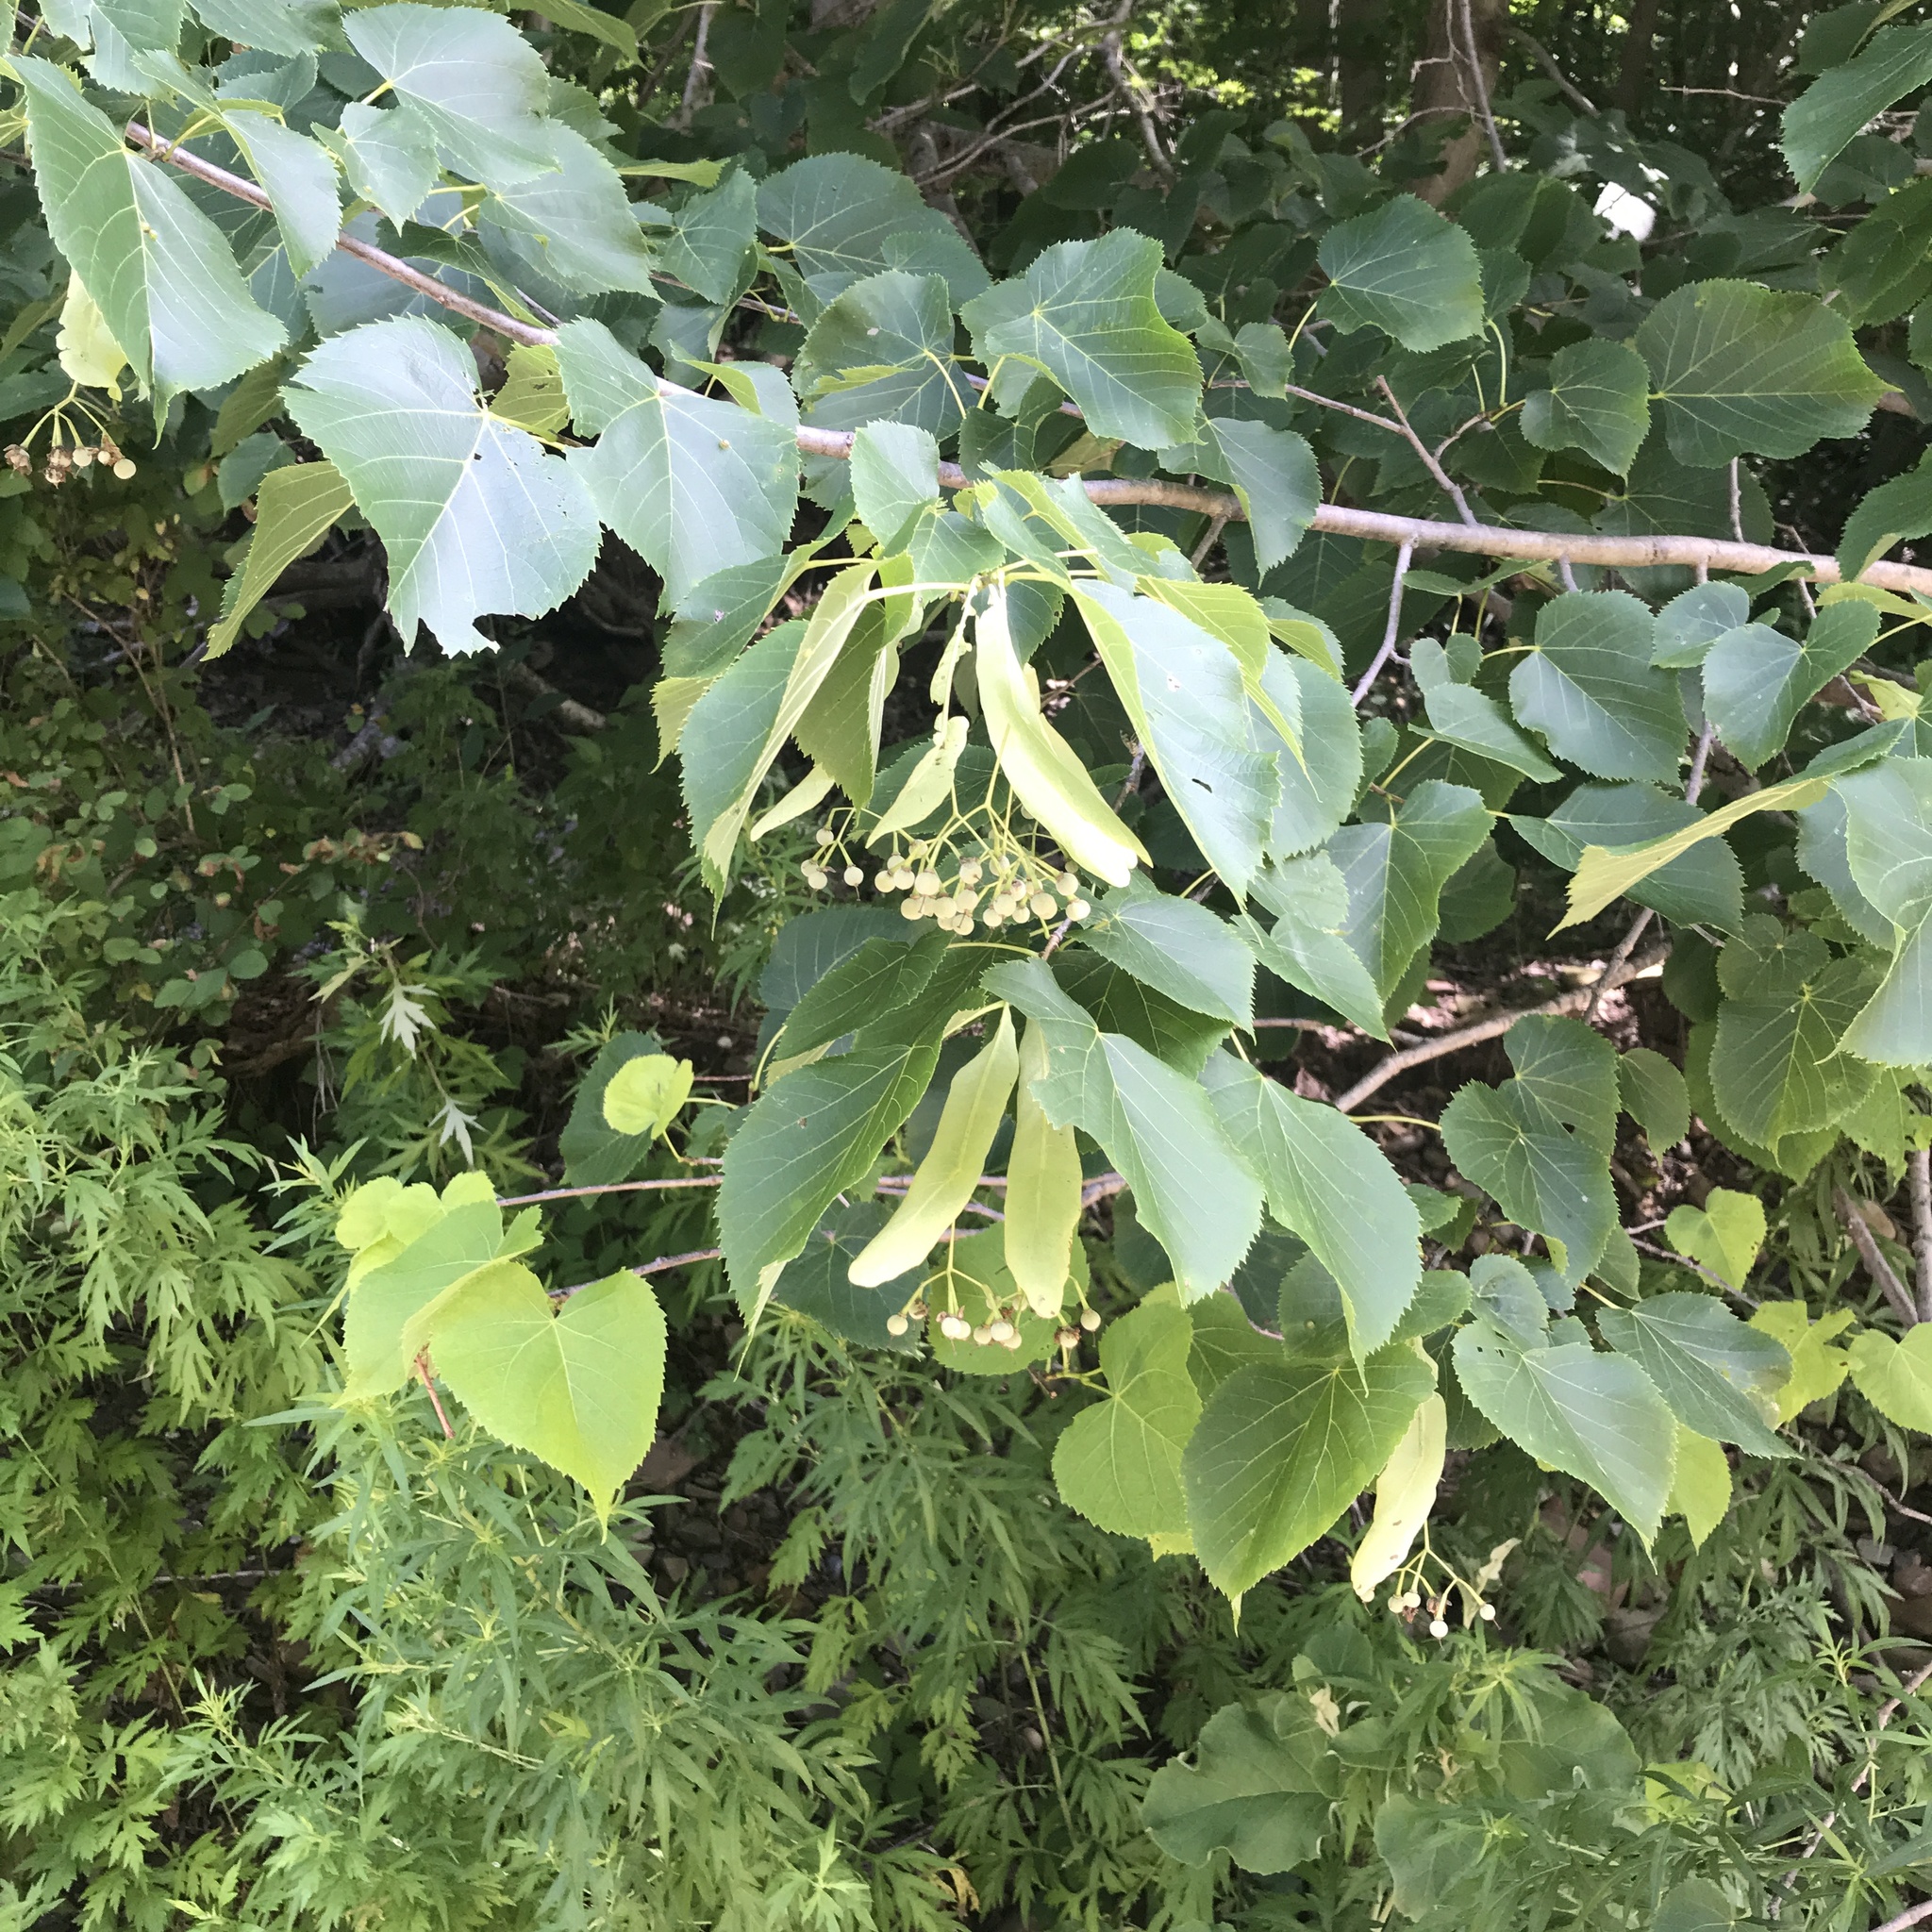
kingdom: Plantae
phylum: Tracheophyta
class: Magnoliopsida
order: Malvales
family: Malvaceae
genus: Tilia
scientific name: Tilia americana
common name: Basswood
